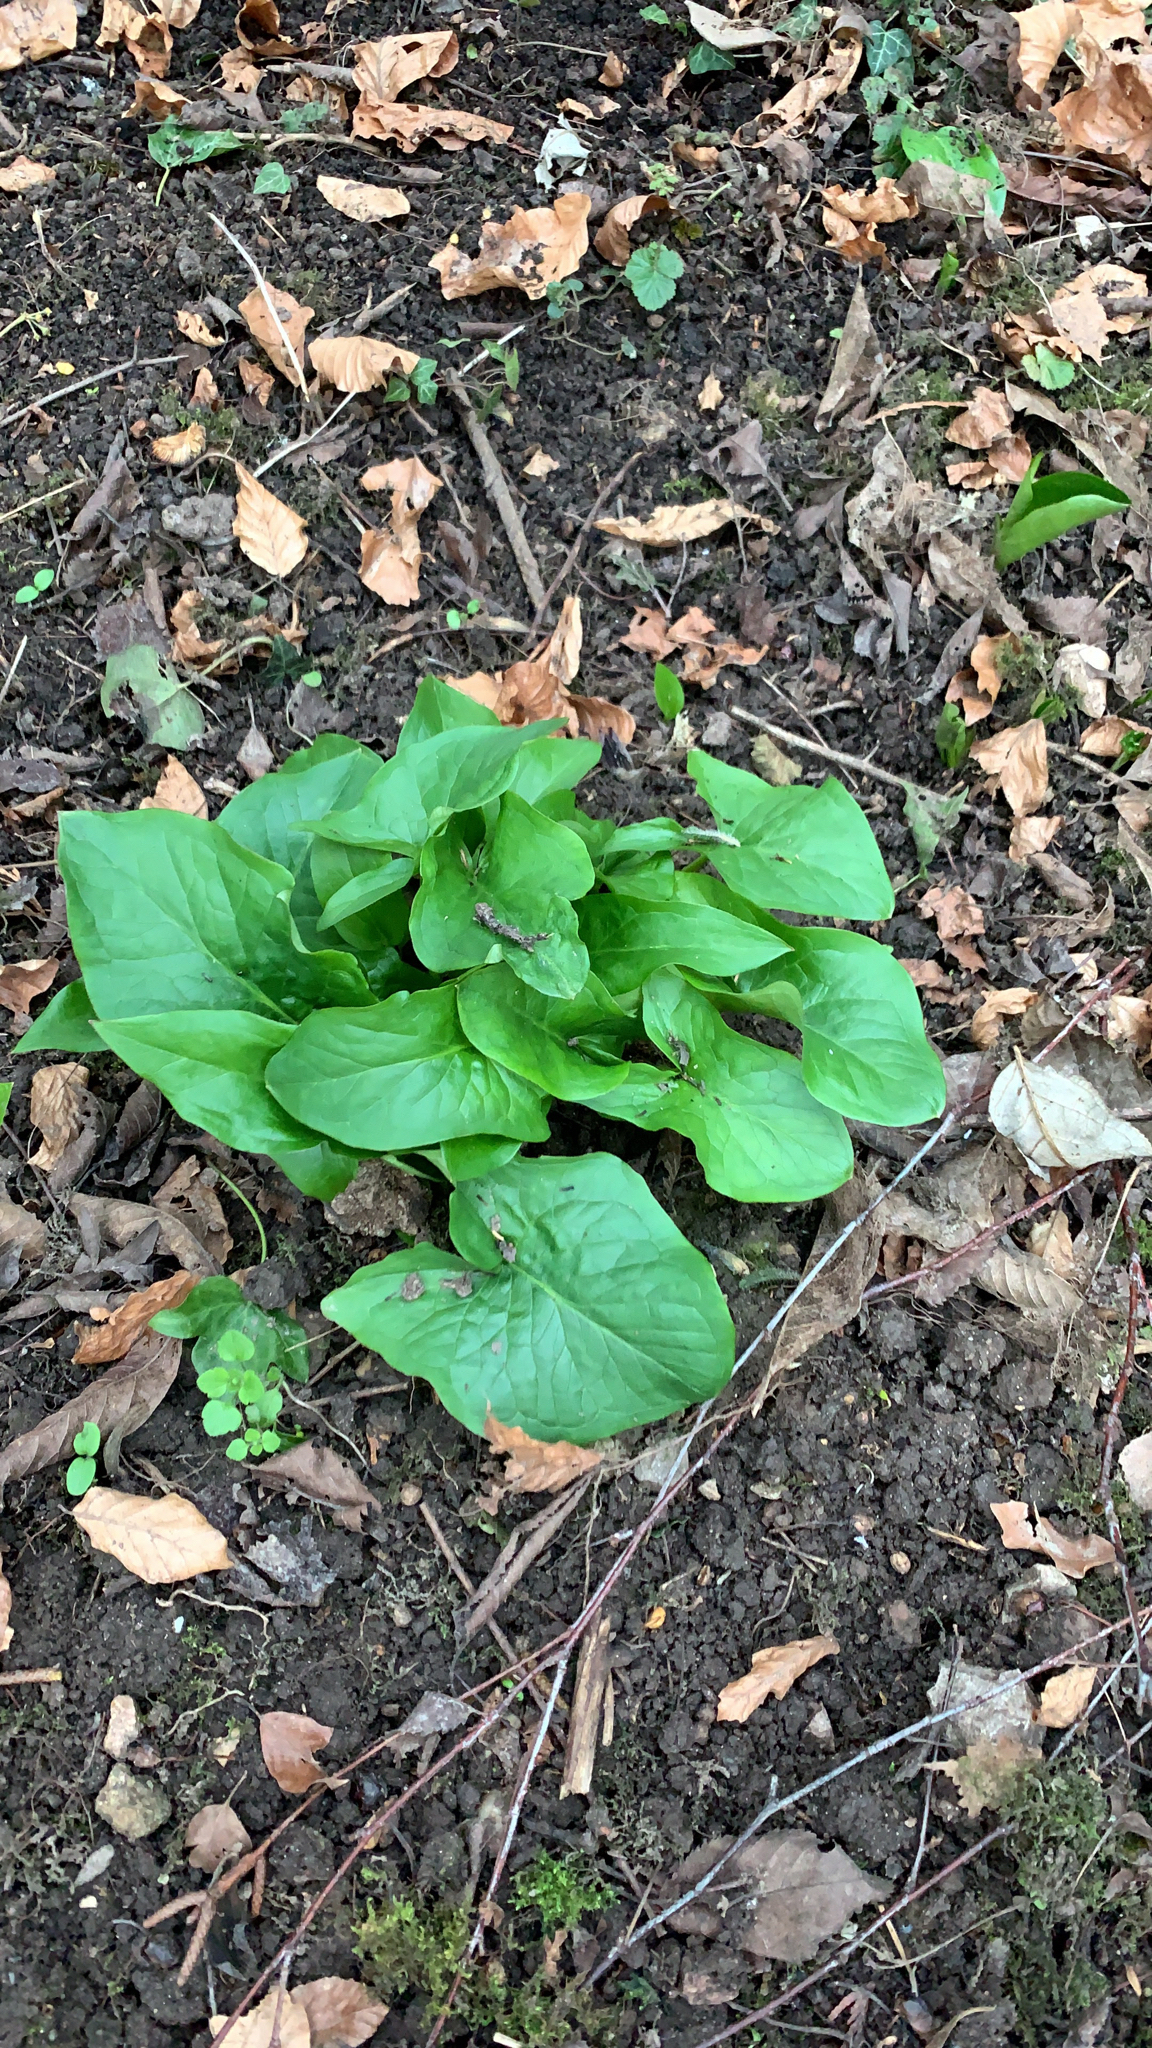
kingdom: Plantae
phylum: Tracheophyta
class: Liliopsida
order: Alismatales
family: Araceae
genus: Arum
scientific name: Arum maculatum
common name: Lords-and-ladies
